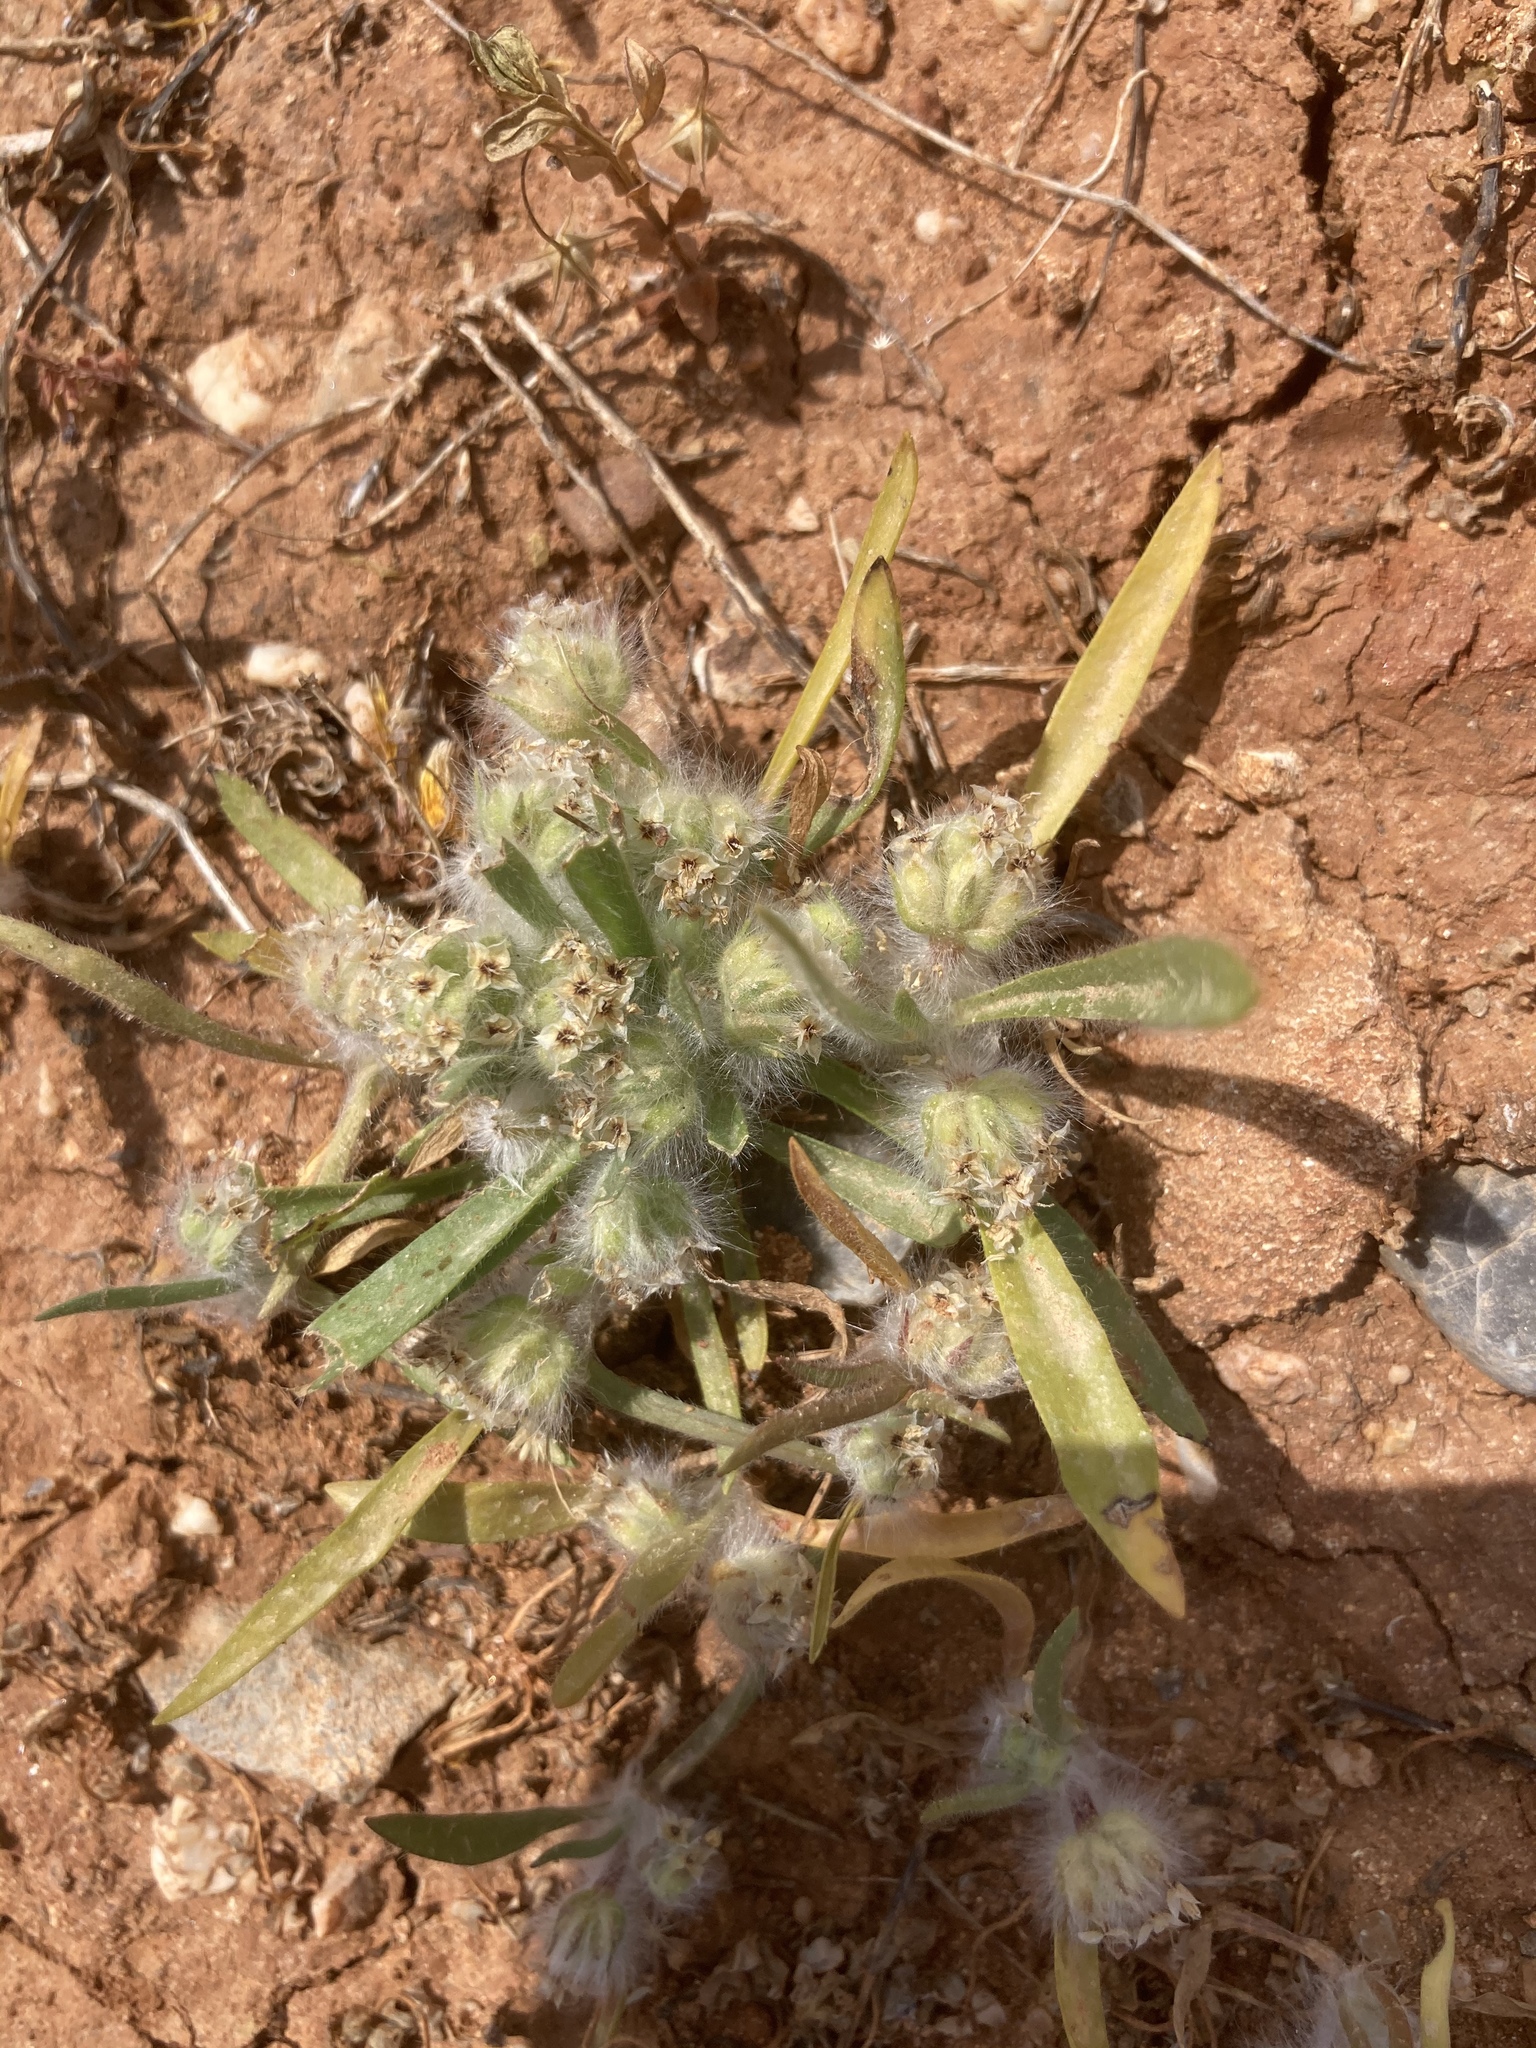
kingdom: Plantae
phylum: Tracheophyta
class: Magnoliopsida
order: Lamiales
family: Plantaginaceae
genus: Plantago
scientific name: Plantago cretica
